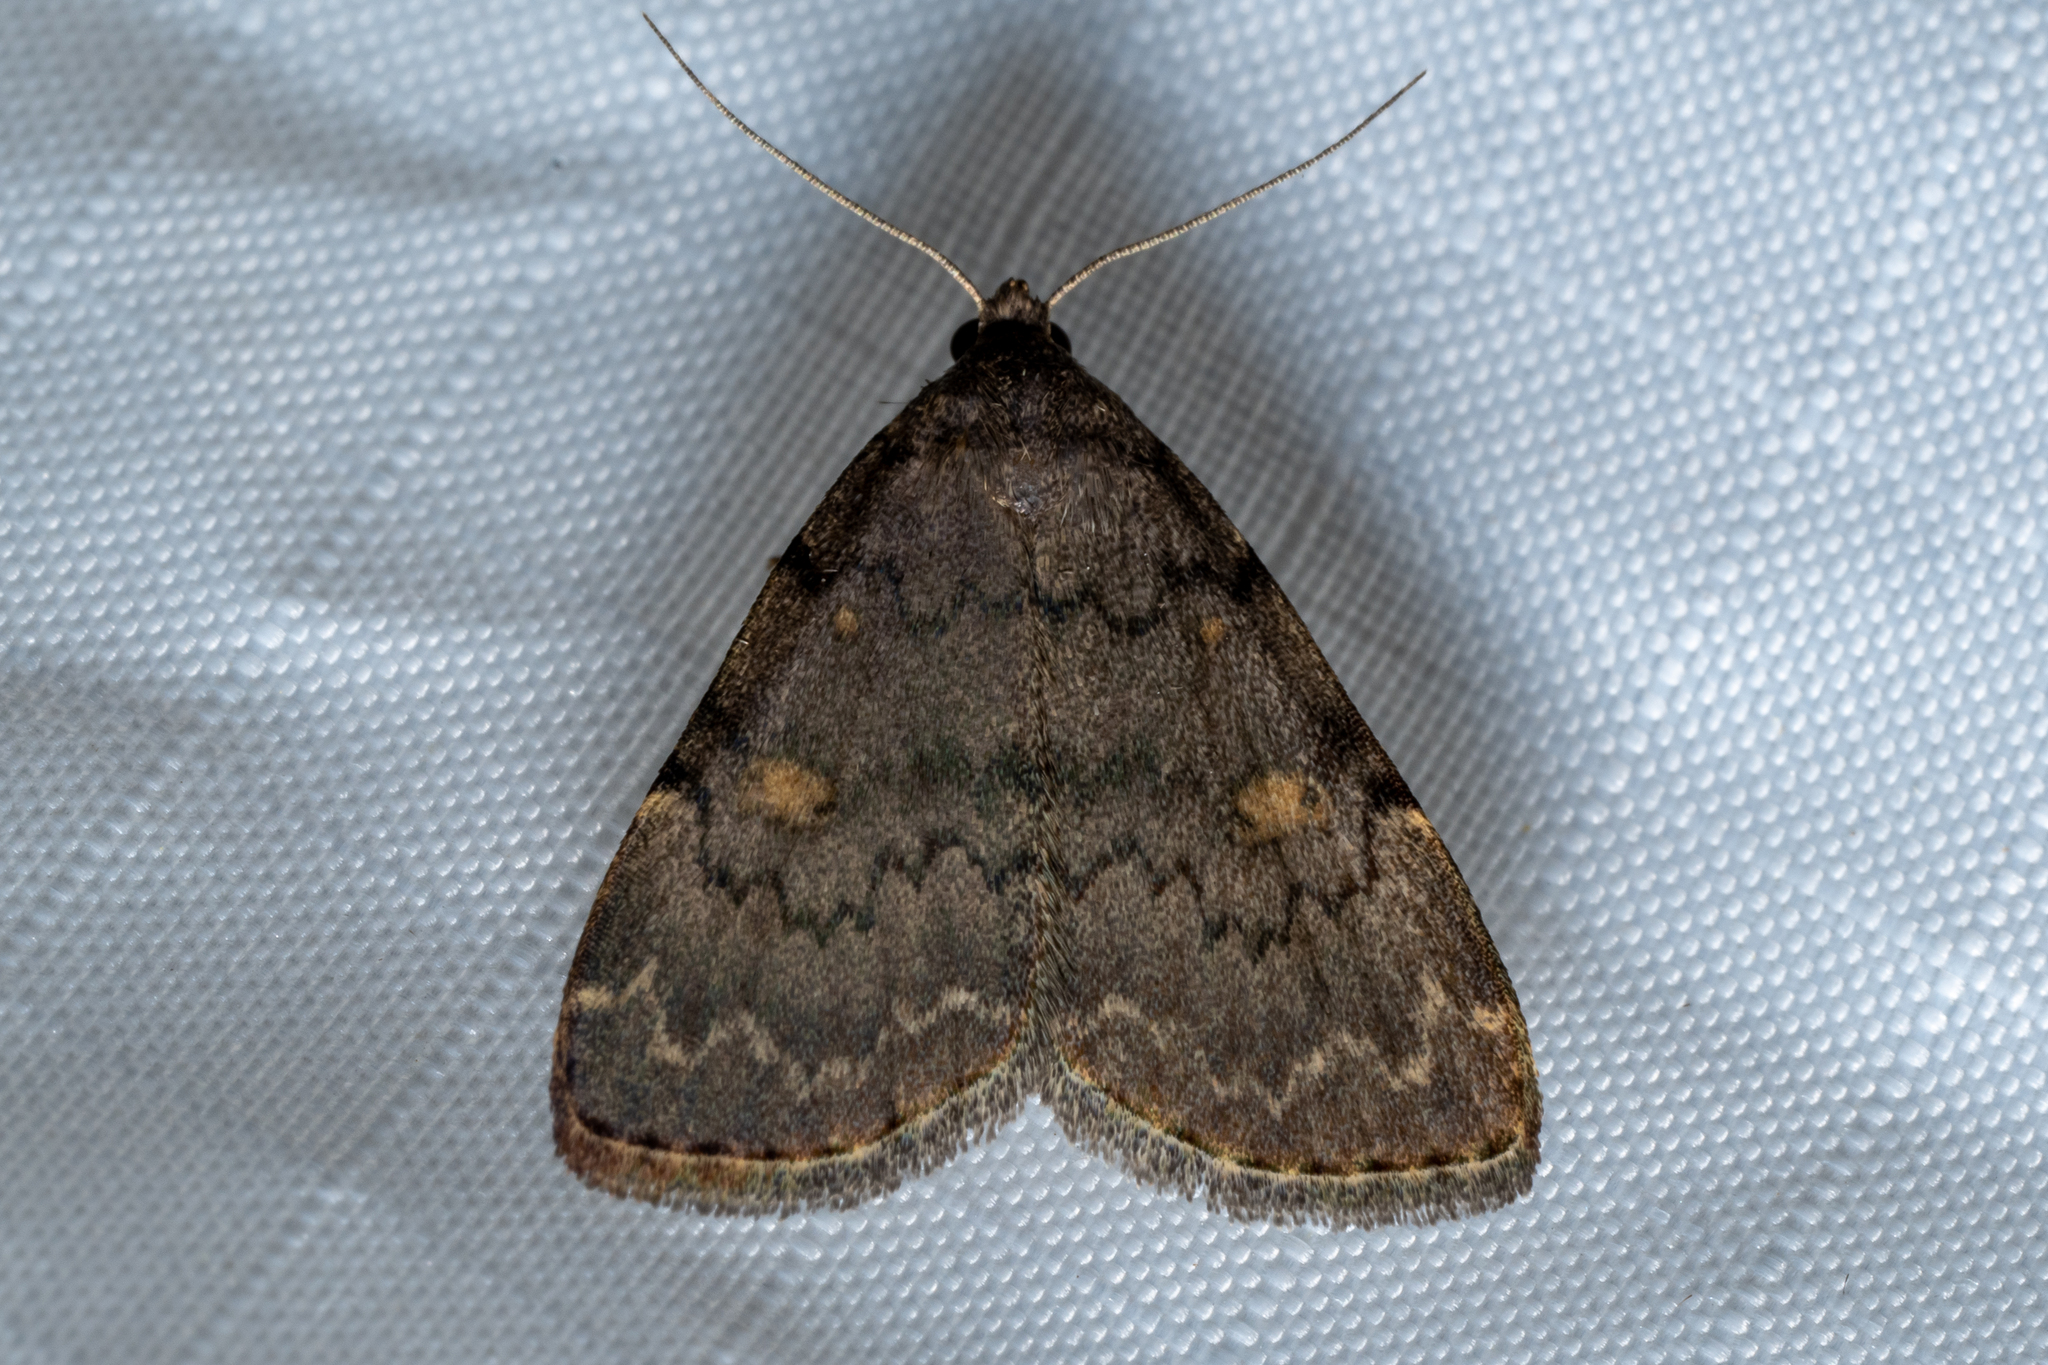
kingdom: Animalia
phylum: Arthropoda
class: Insecta
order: Lepidoptera
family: Erebidae
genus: Idia
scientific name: Idia aemula
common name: Common idia moth
